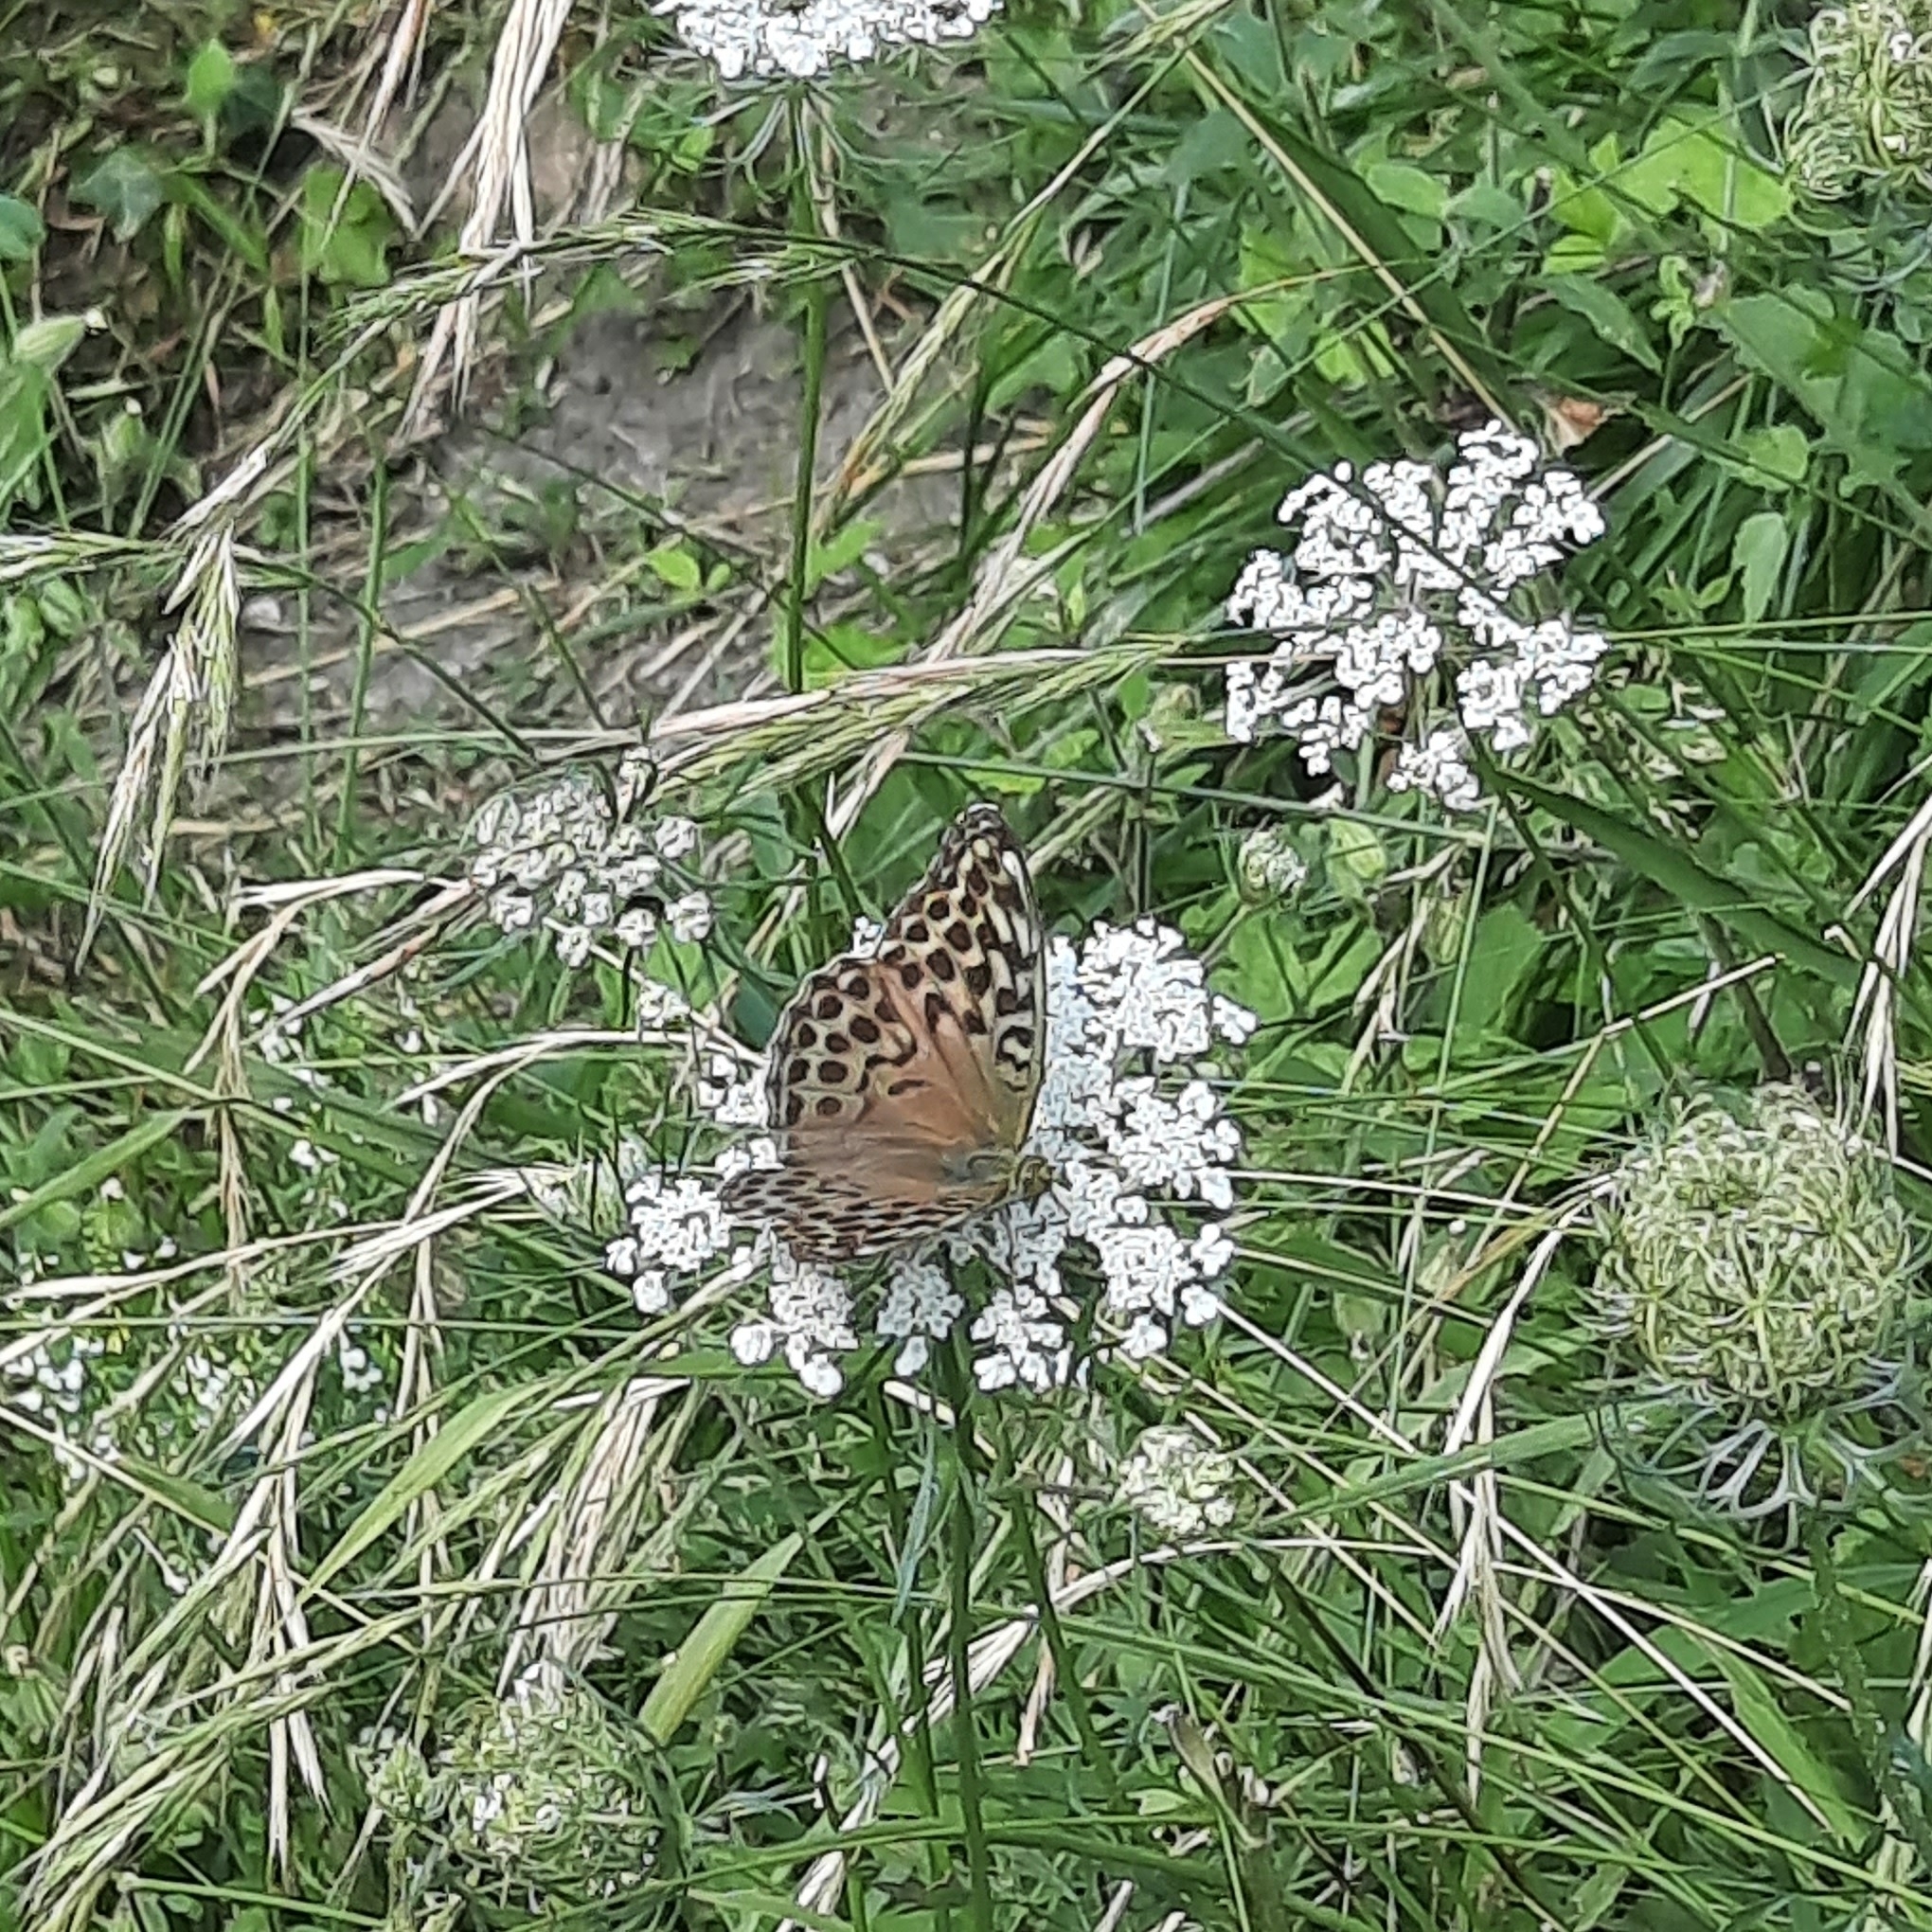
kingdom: Animalia
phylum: Arthropoda
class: Insecta
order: Lepidoptera
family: Nymphalidae
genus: Argynnis
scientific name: Argynnis paphia
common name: Silver-washed fritillary
